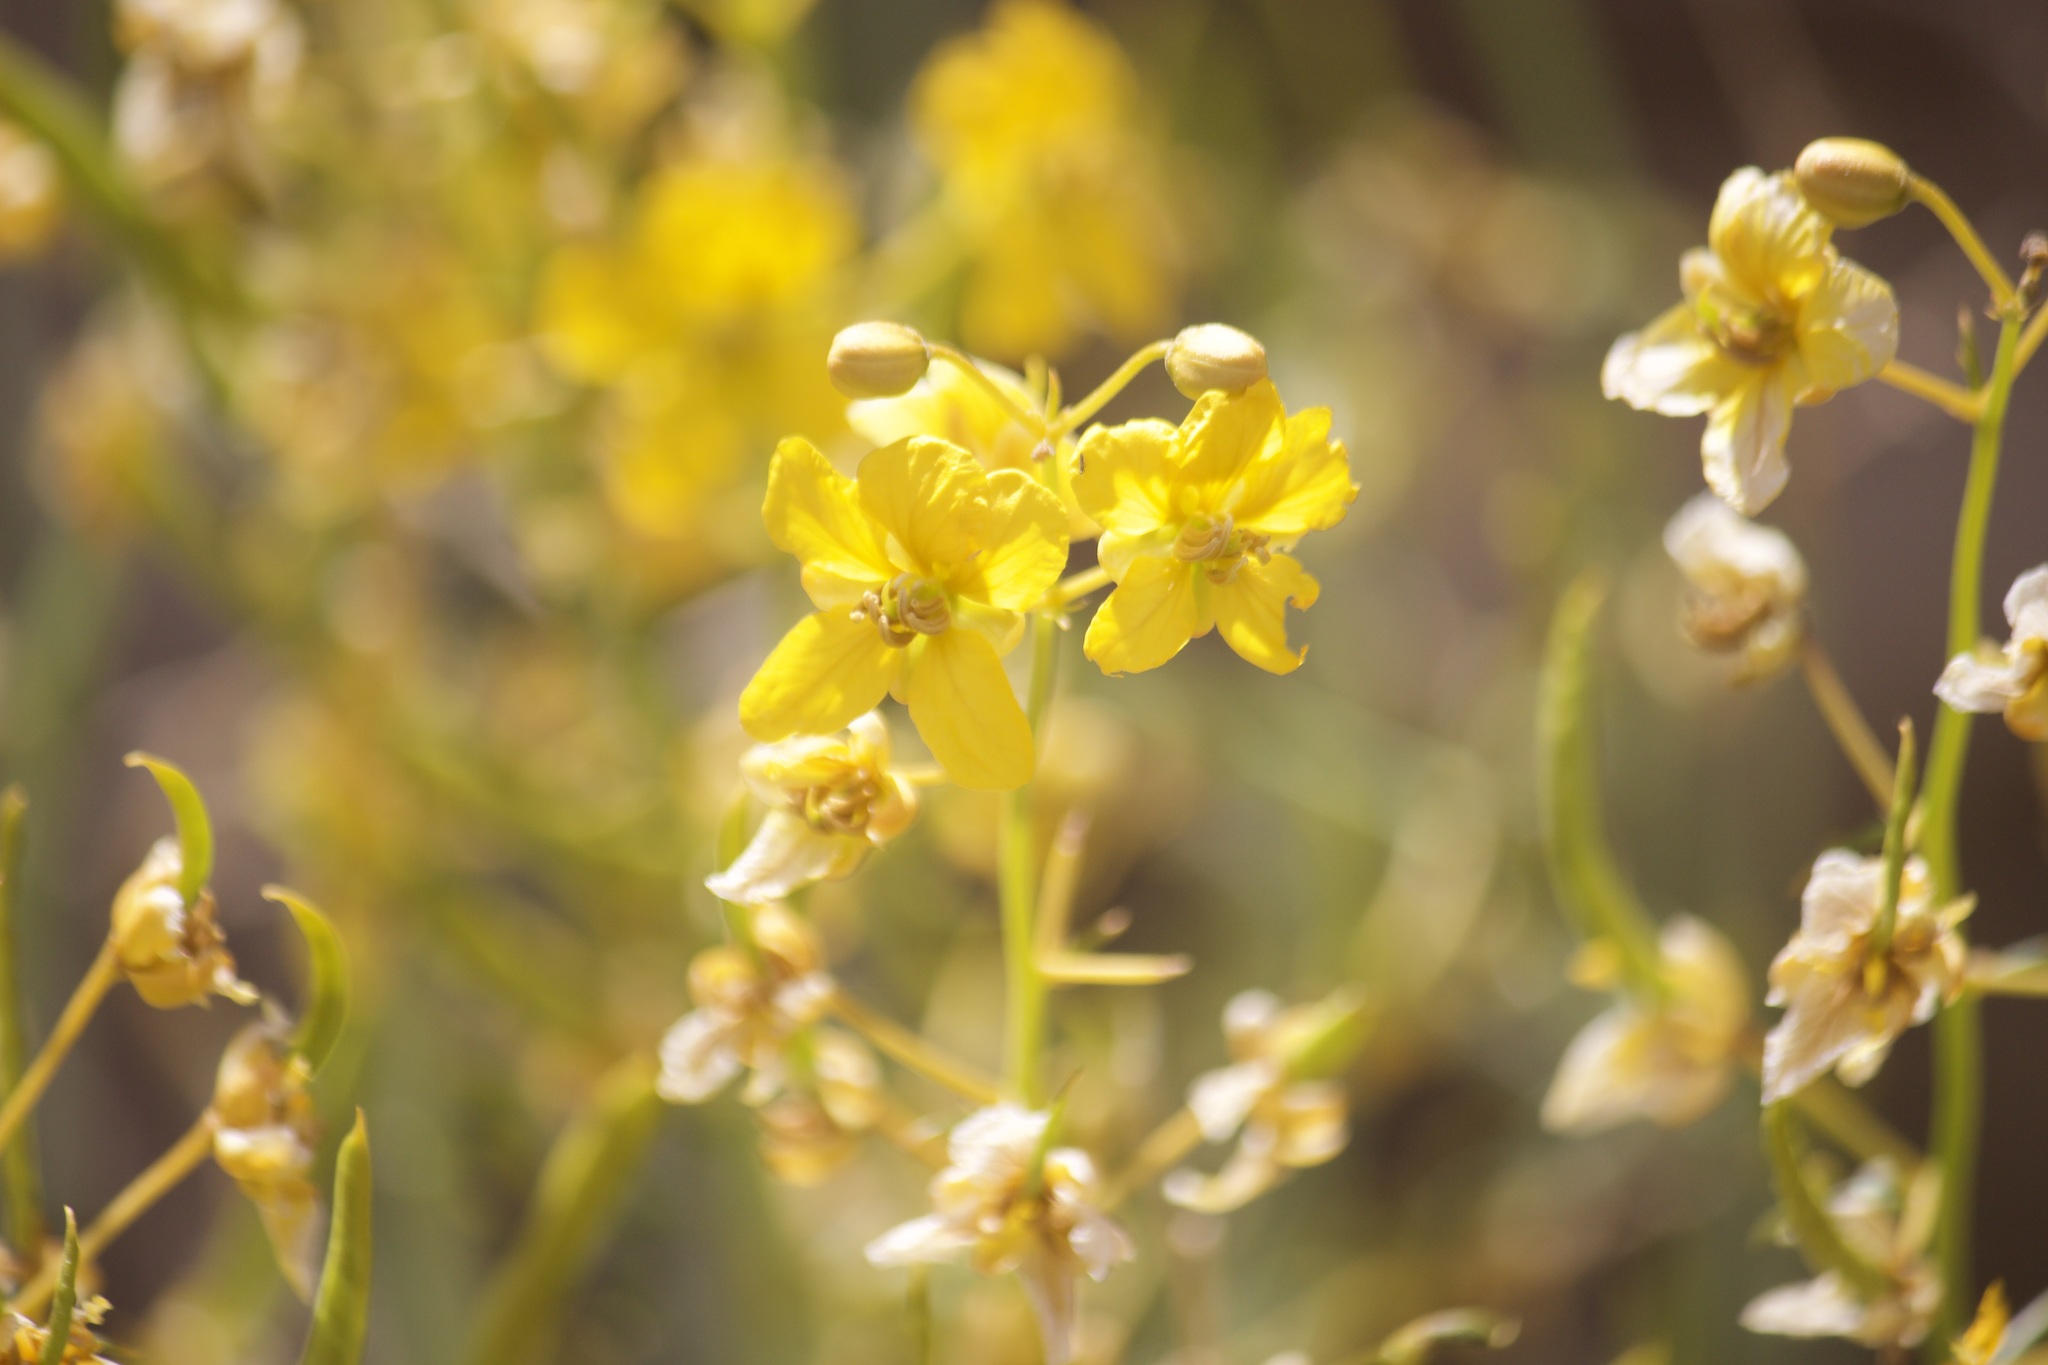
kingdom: Plantae
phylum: Tracheophyta
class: Magnoliopsida
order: Fabales
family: Fabaceae
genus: Senna
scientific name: Senna armata
